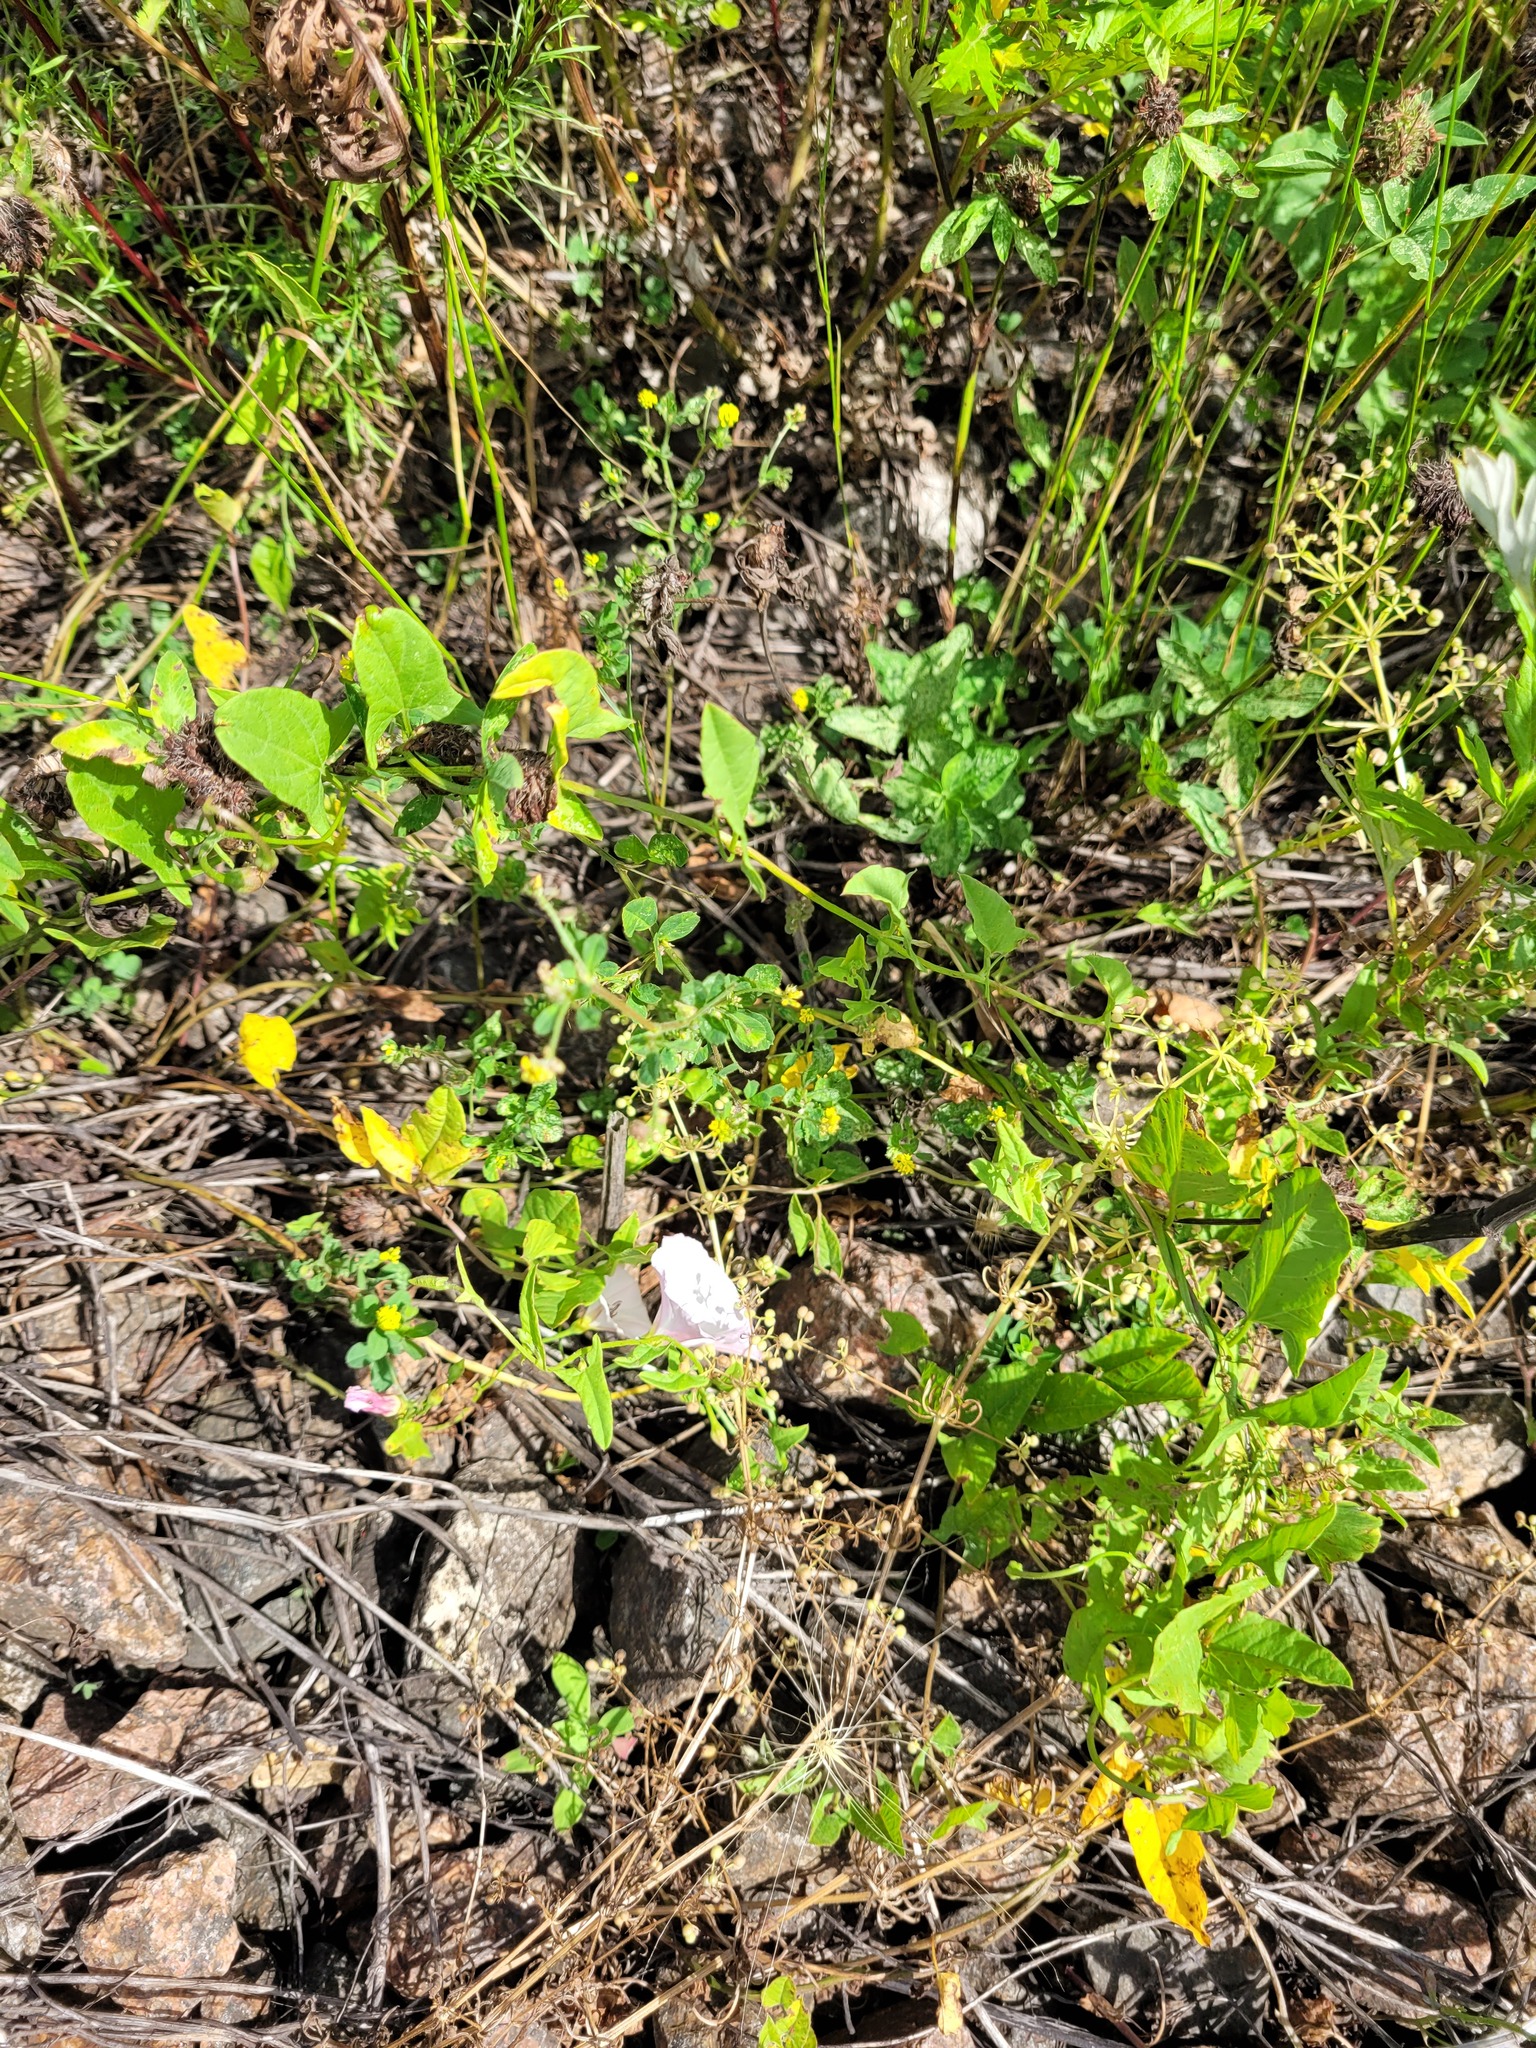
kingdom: Plantae
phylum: Tracheophyta
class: Magnoliopsida
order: Fabales
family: Fabaceae
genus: Medicago
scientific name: Medicago lupulina
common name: Black medick
